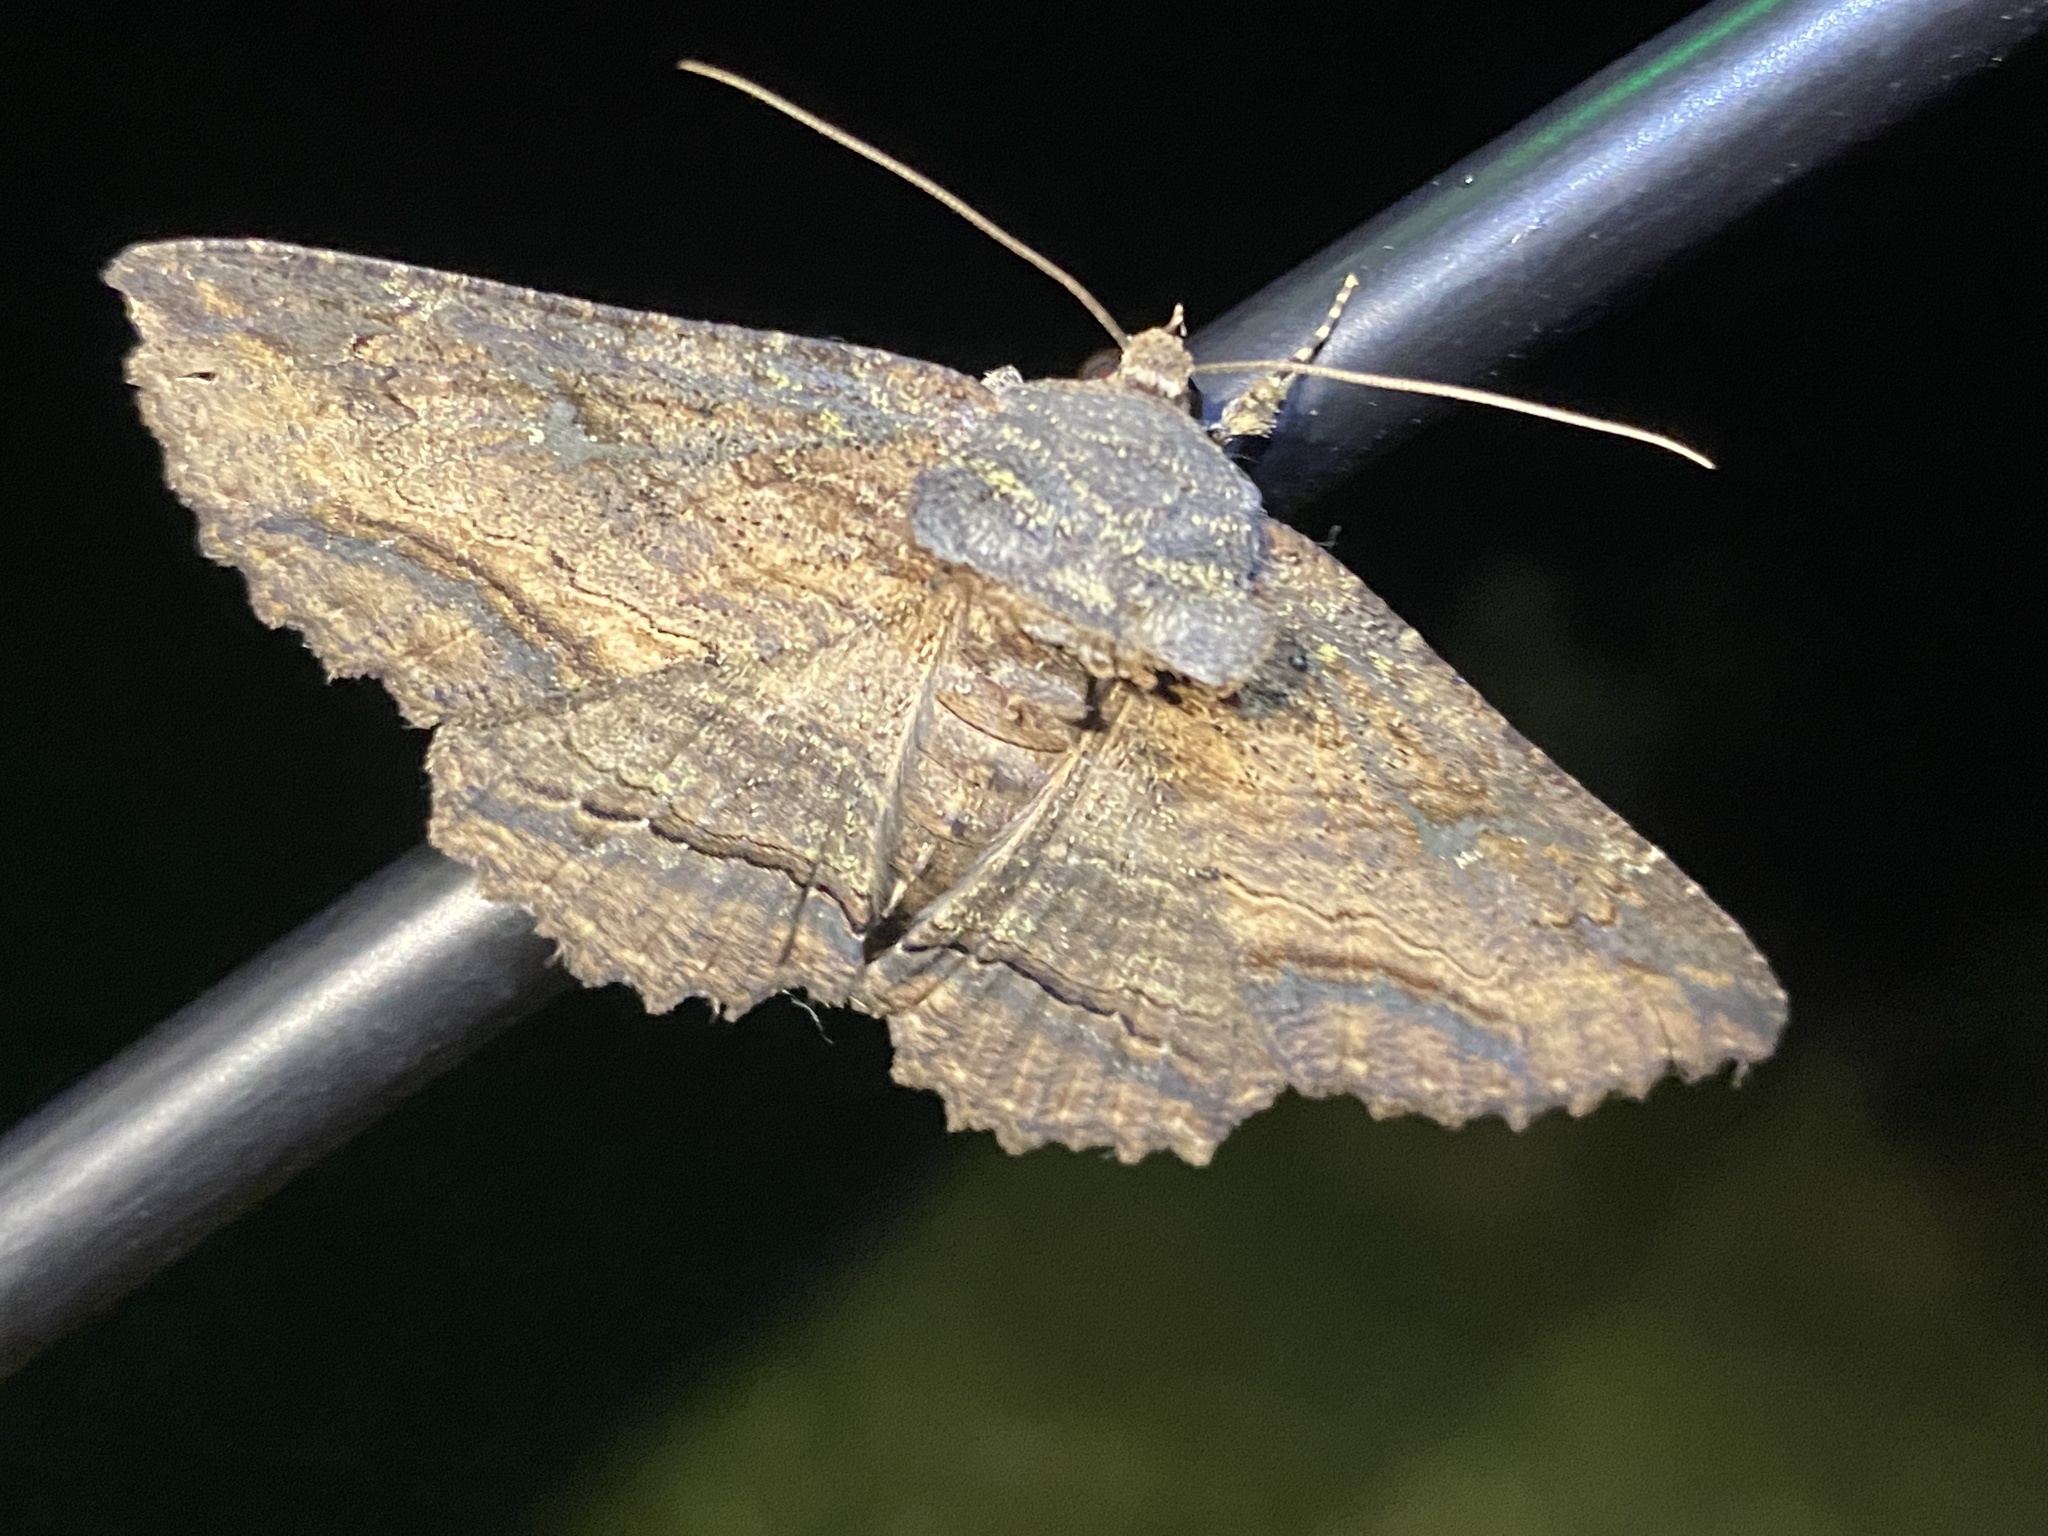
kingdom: Animalia
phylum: Arthropoda
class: Insecta
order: Lepidoptera
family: Erebidae
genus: Zale
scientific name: Zale lunata
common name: Lunate zale moth
